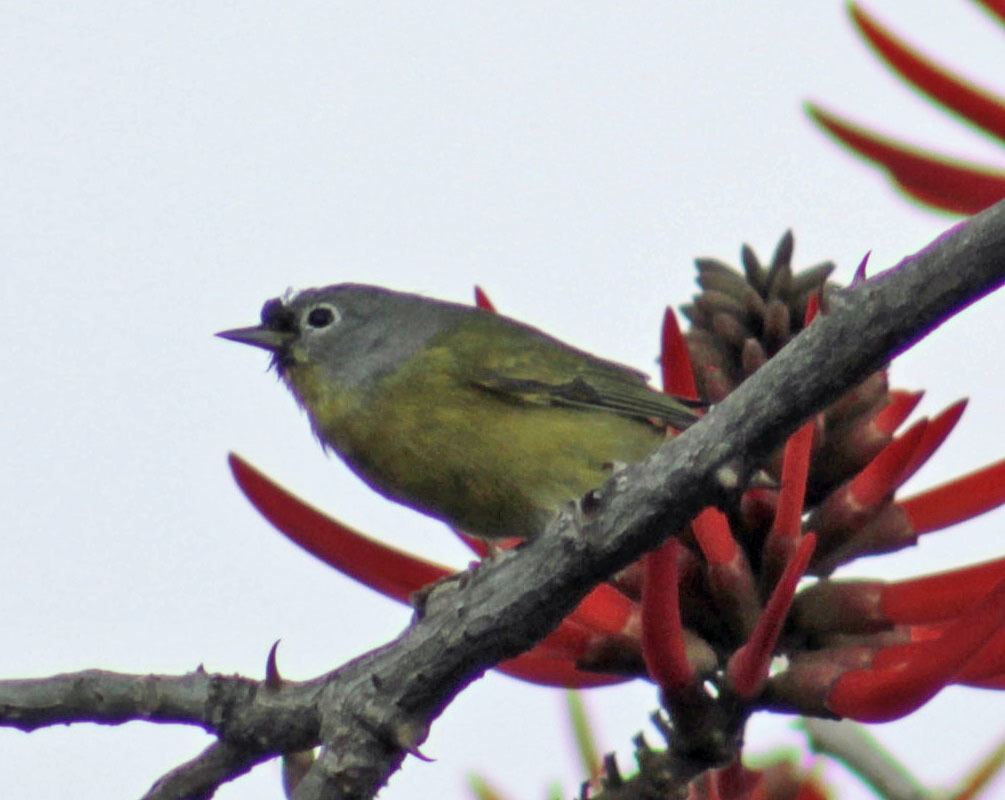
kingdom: Animalia
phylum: Chordata
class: Aves
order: Passeriformes
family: Parulidae
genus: Leiothlypis
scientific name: Leiothlypis ruficapilla
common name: Nashville warbler
